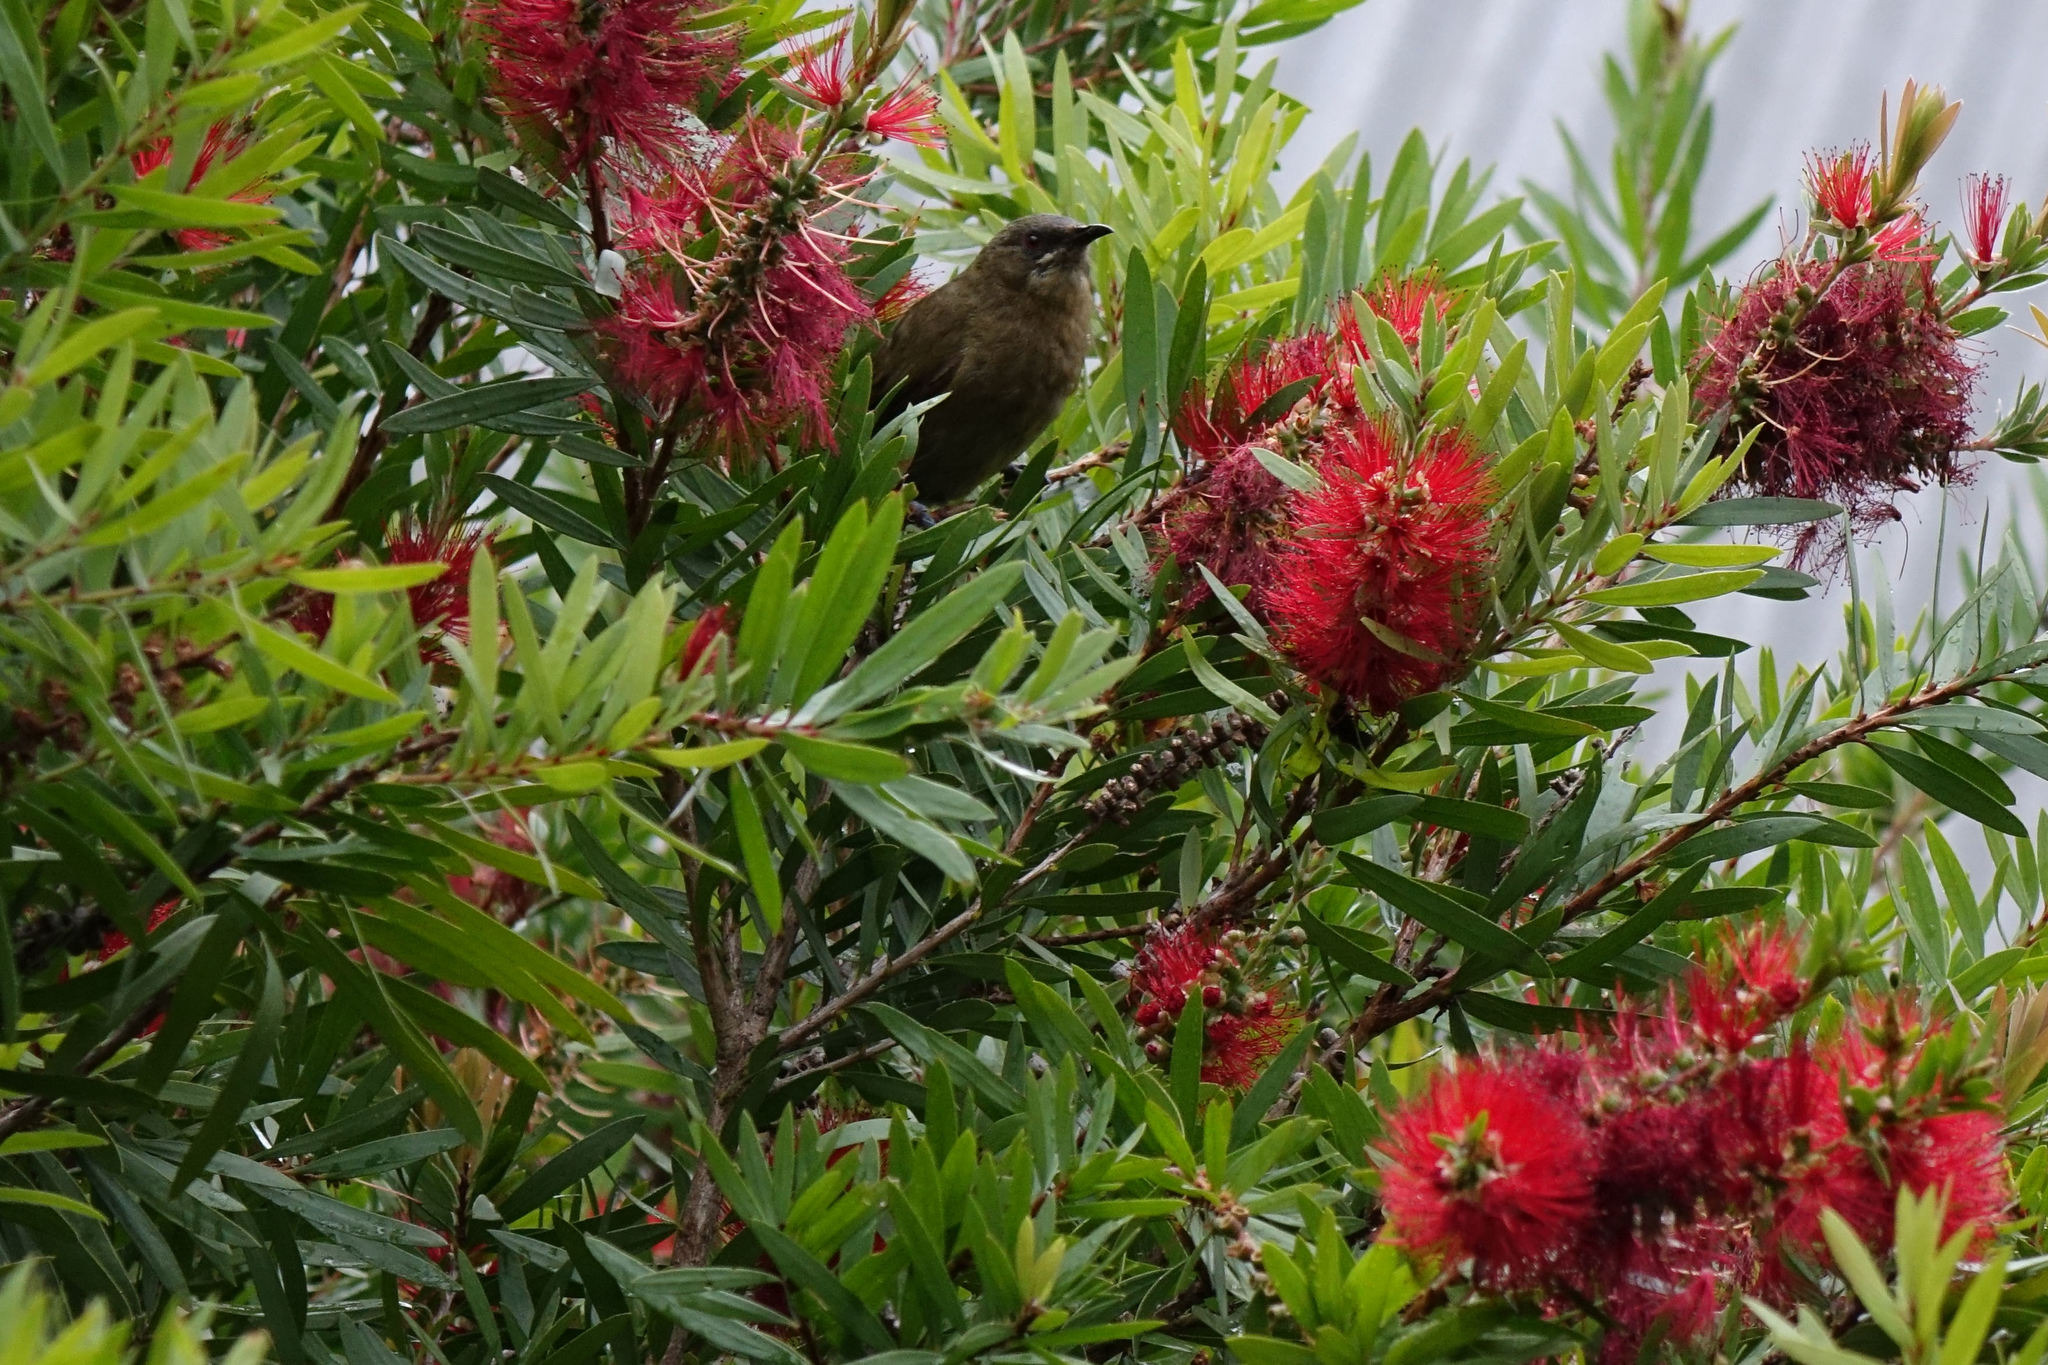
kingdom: Animalia
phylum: Chordata
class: Aves
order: Passeriformes
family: Meliphagidae
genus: Anthornis
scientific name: Anthornis melanura
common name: New zealand bellbird
